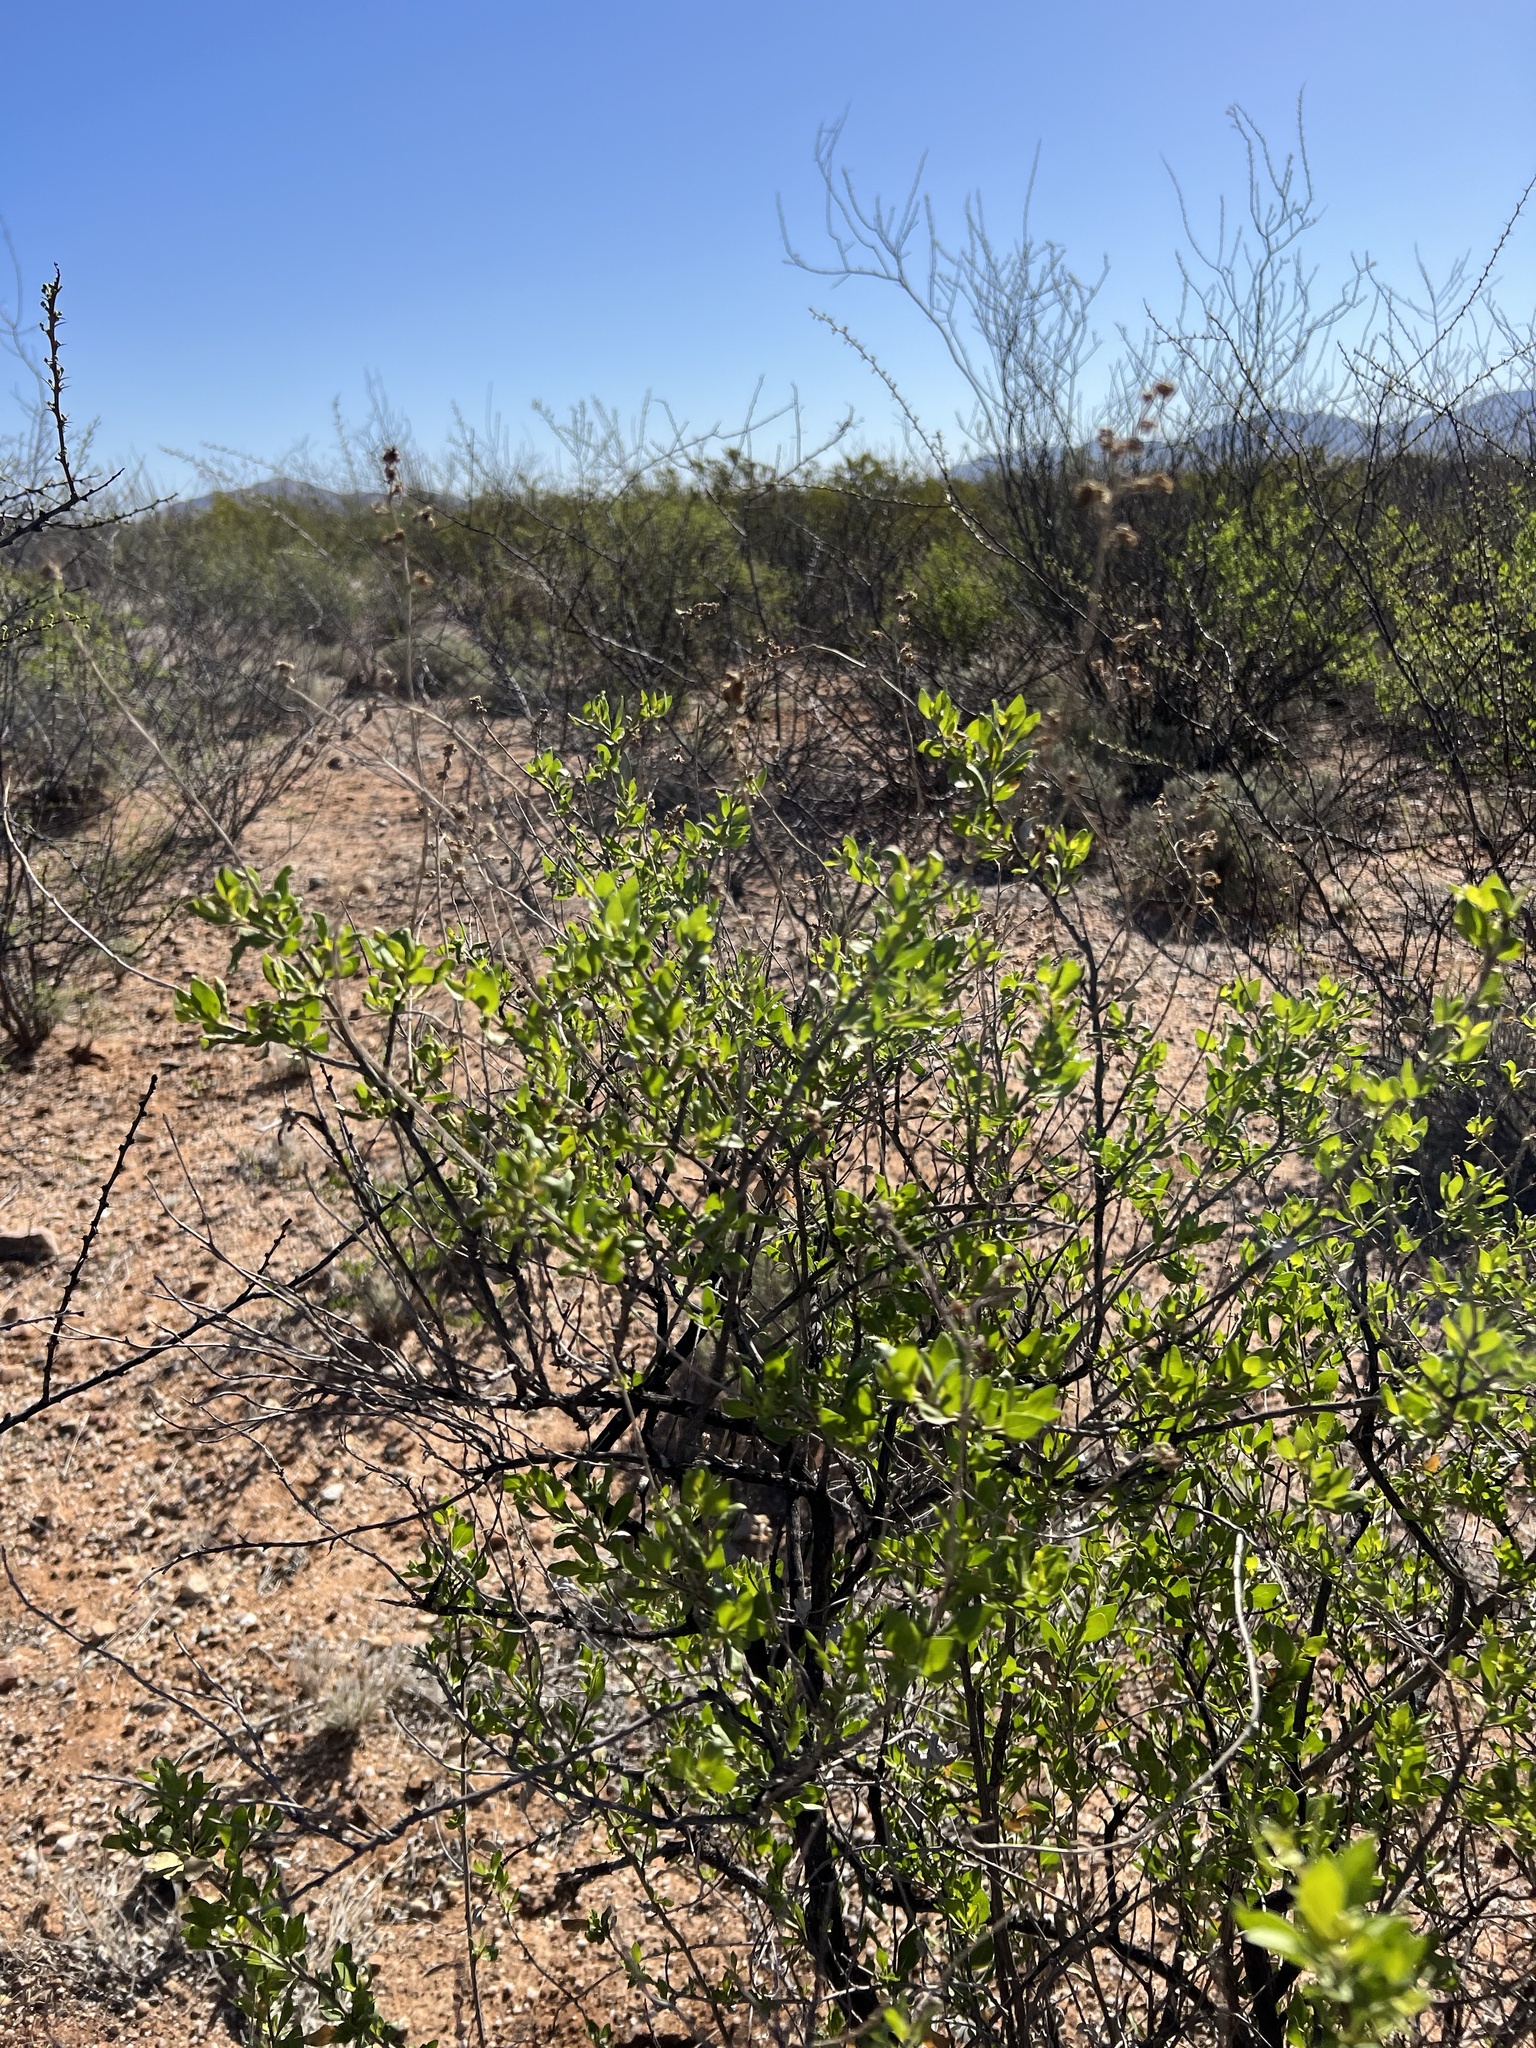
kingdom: Plantae
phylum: Tracheophyta
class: Magnoliopsida
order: Asterales
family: Asteraceae
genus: Flourensia
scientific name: Flourensia cernua
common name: Varnishbush
